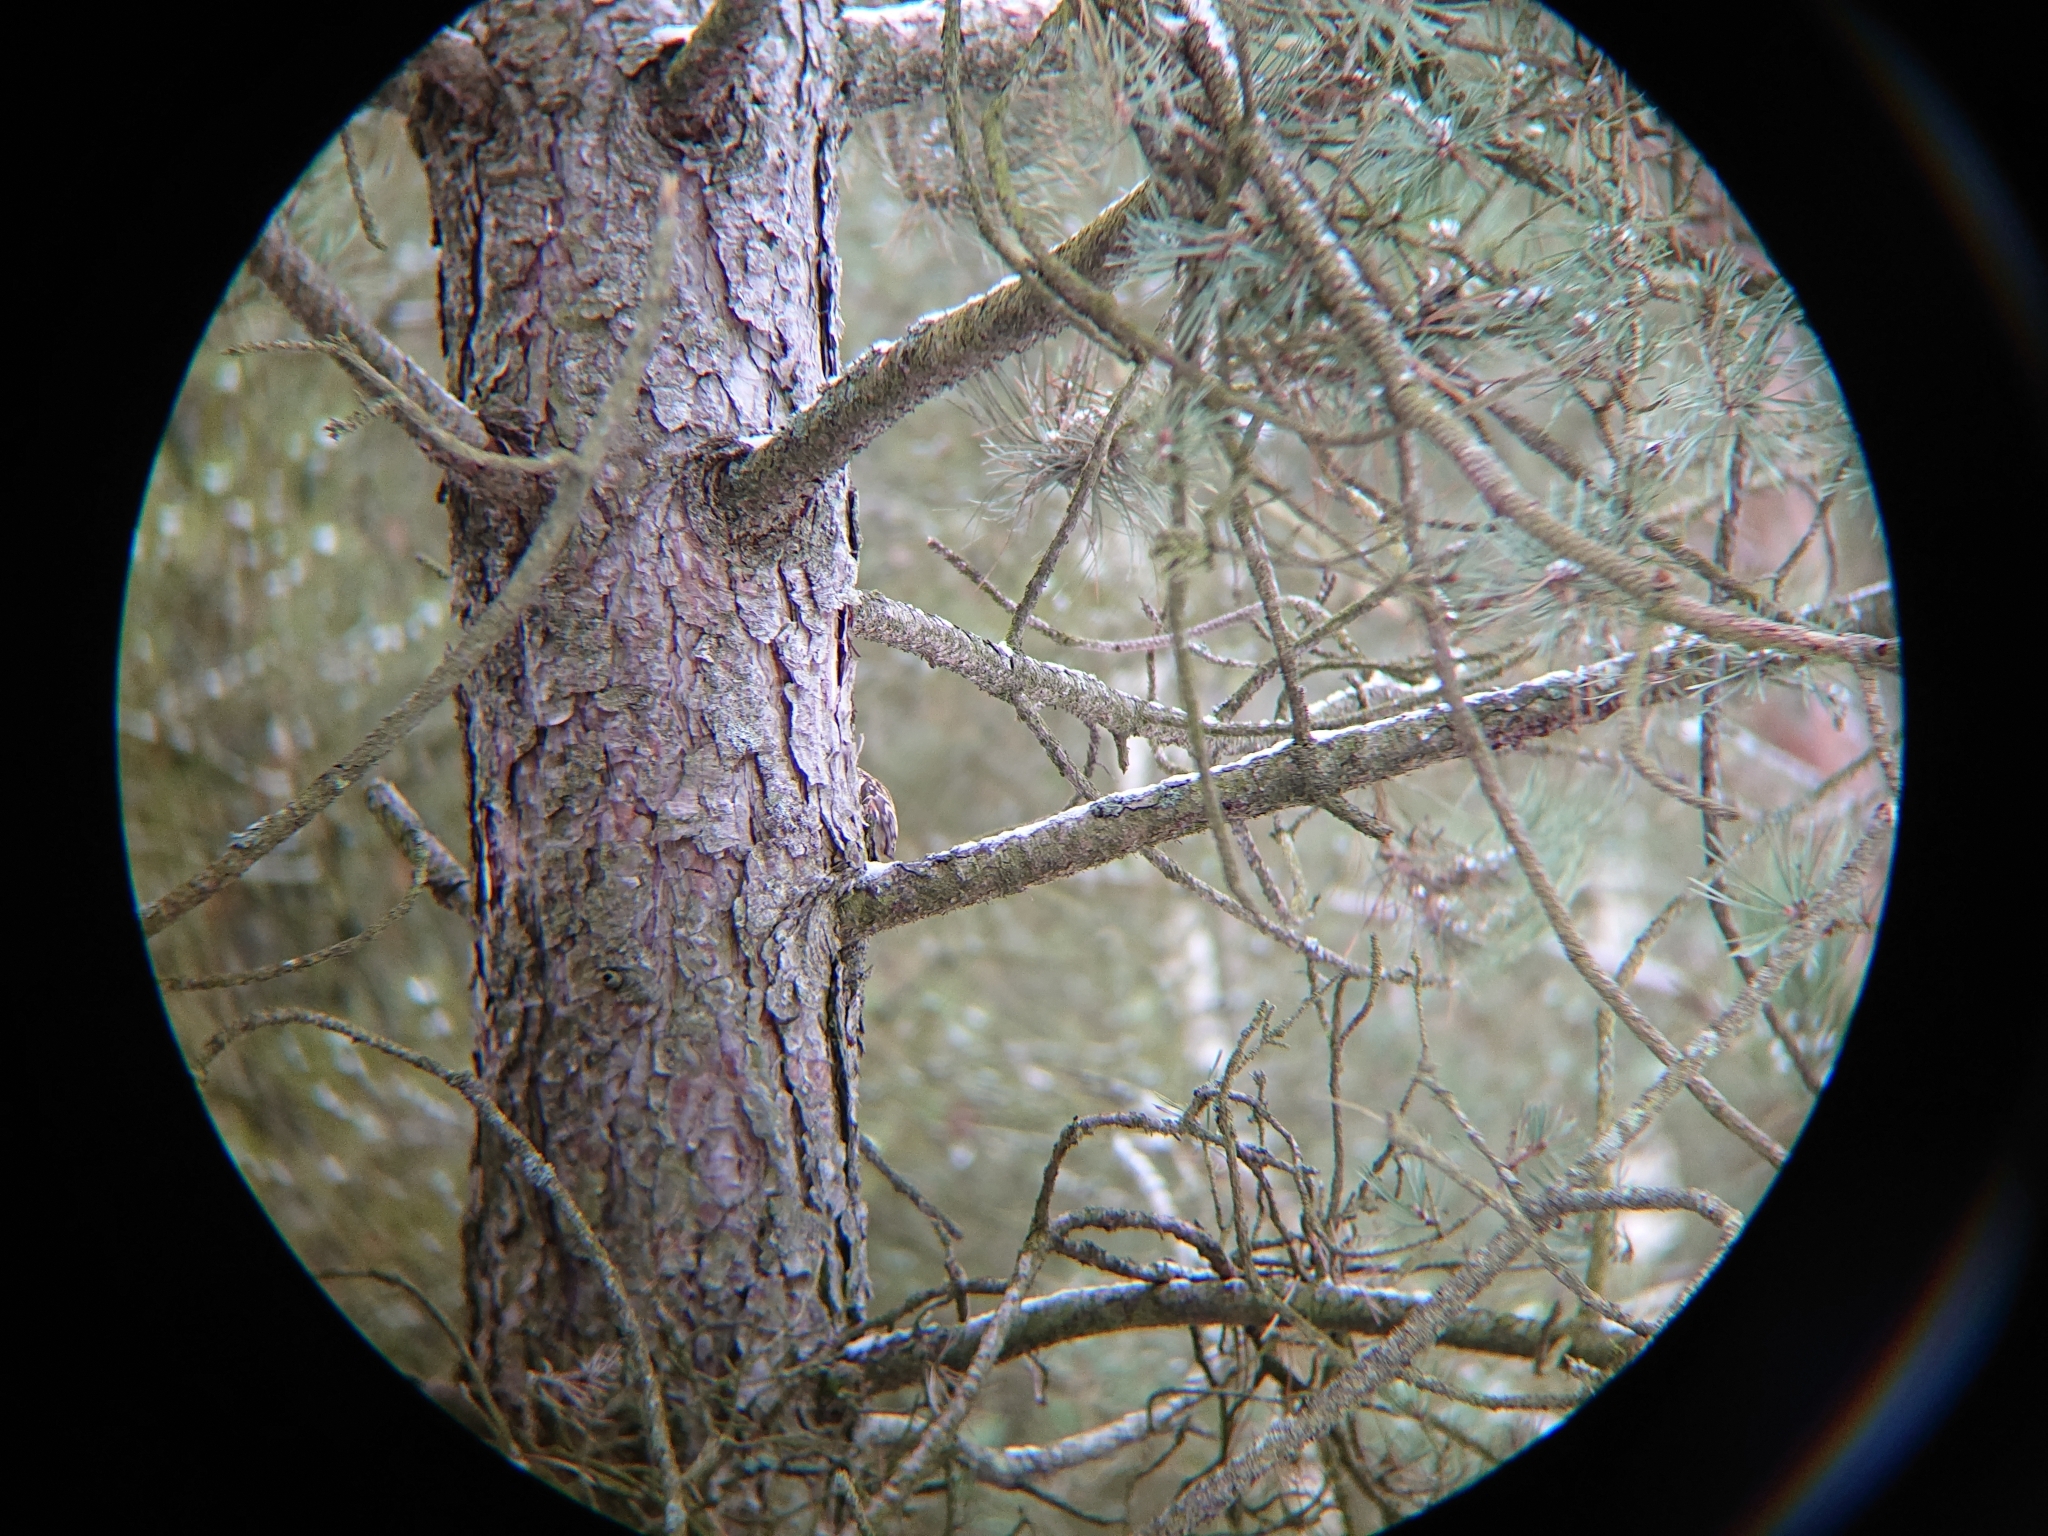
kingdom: Animalia
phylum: Chordata
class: Aves
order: Passeriformes
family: Certhiidae
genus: Certhia
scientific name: Certhia familiaris
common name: Eurasian treecreeper
